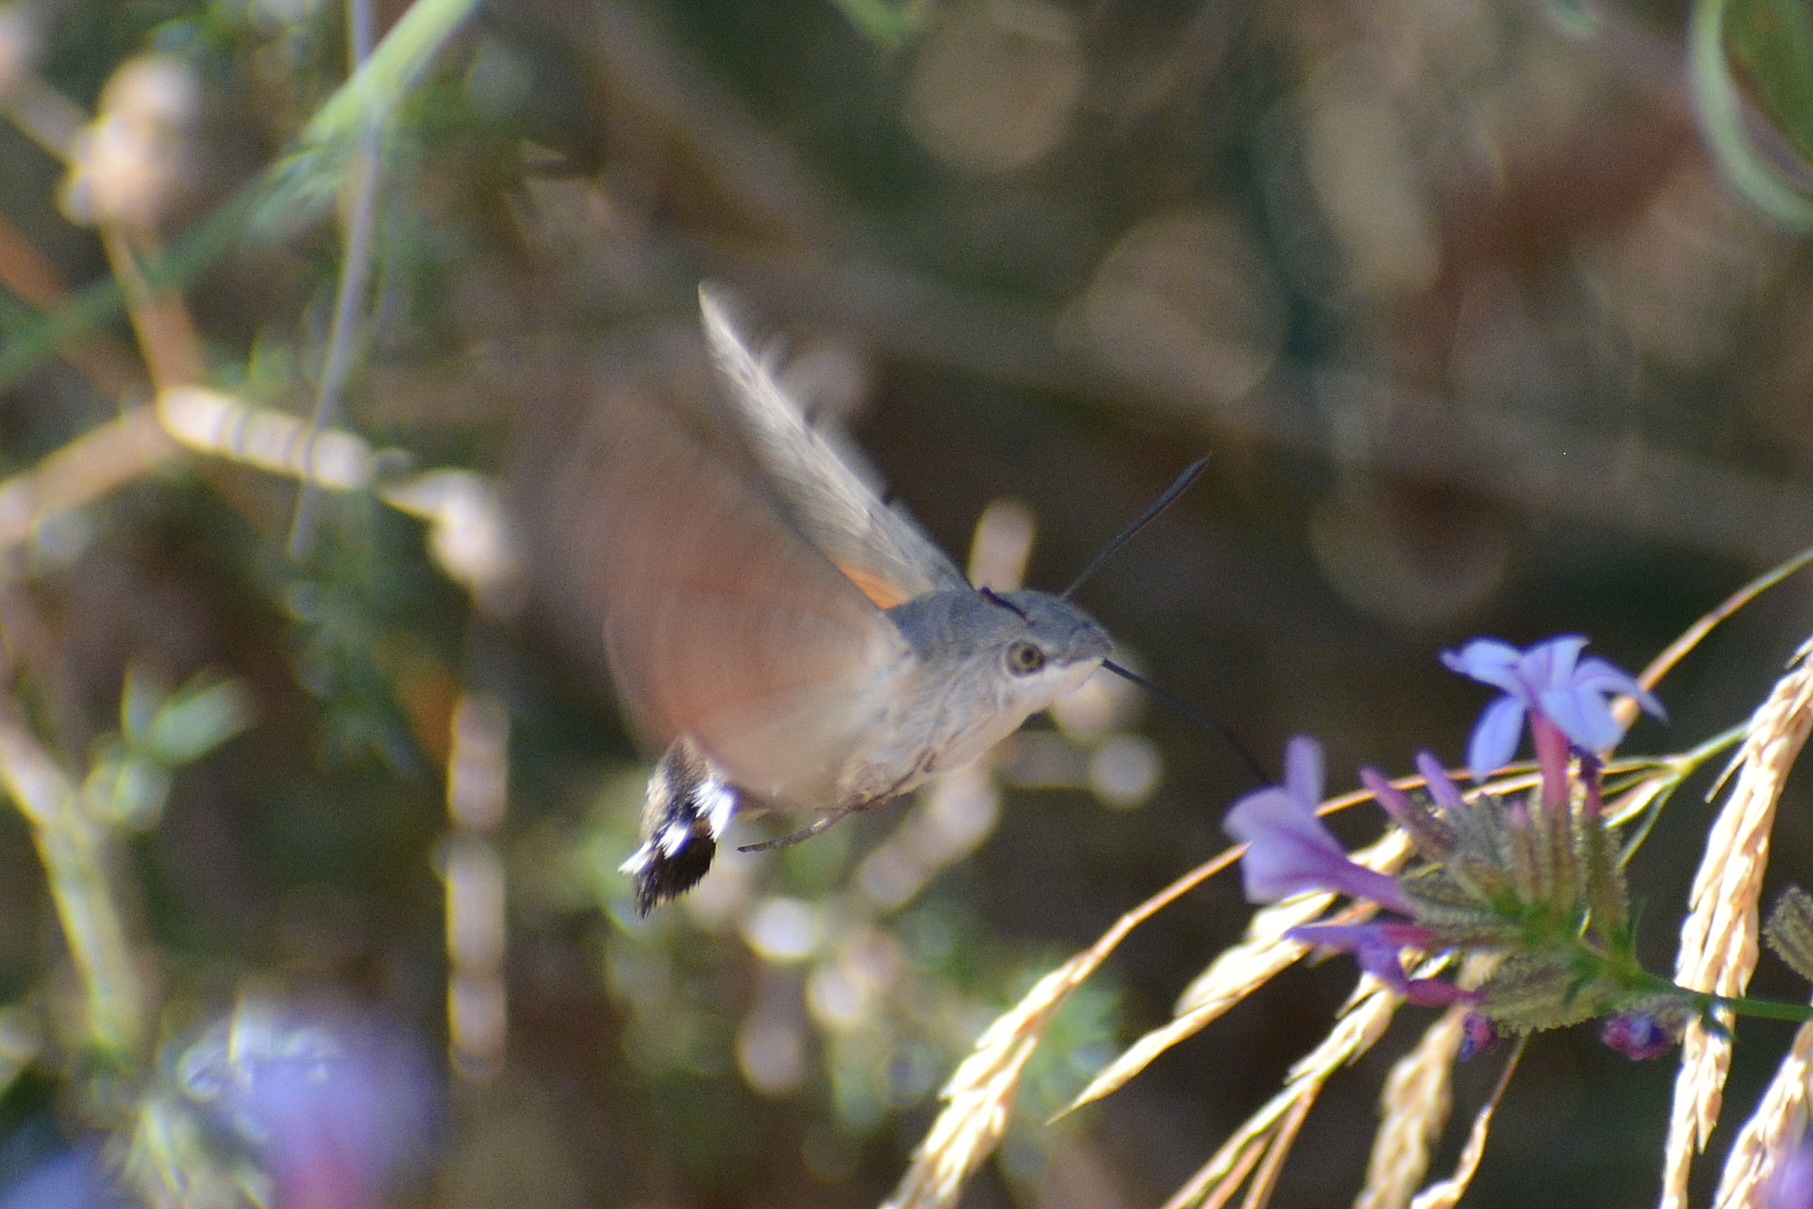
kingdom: Animalia
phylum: Arthropoda
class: Insecta
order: Lepidoptera
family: Sphingidae
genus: Macroglossum
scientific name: Macroglossum stellatarum
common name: Humming-bird hawk-moth
